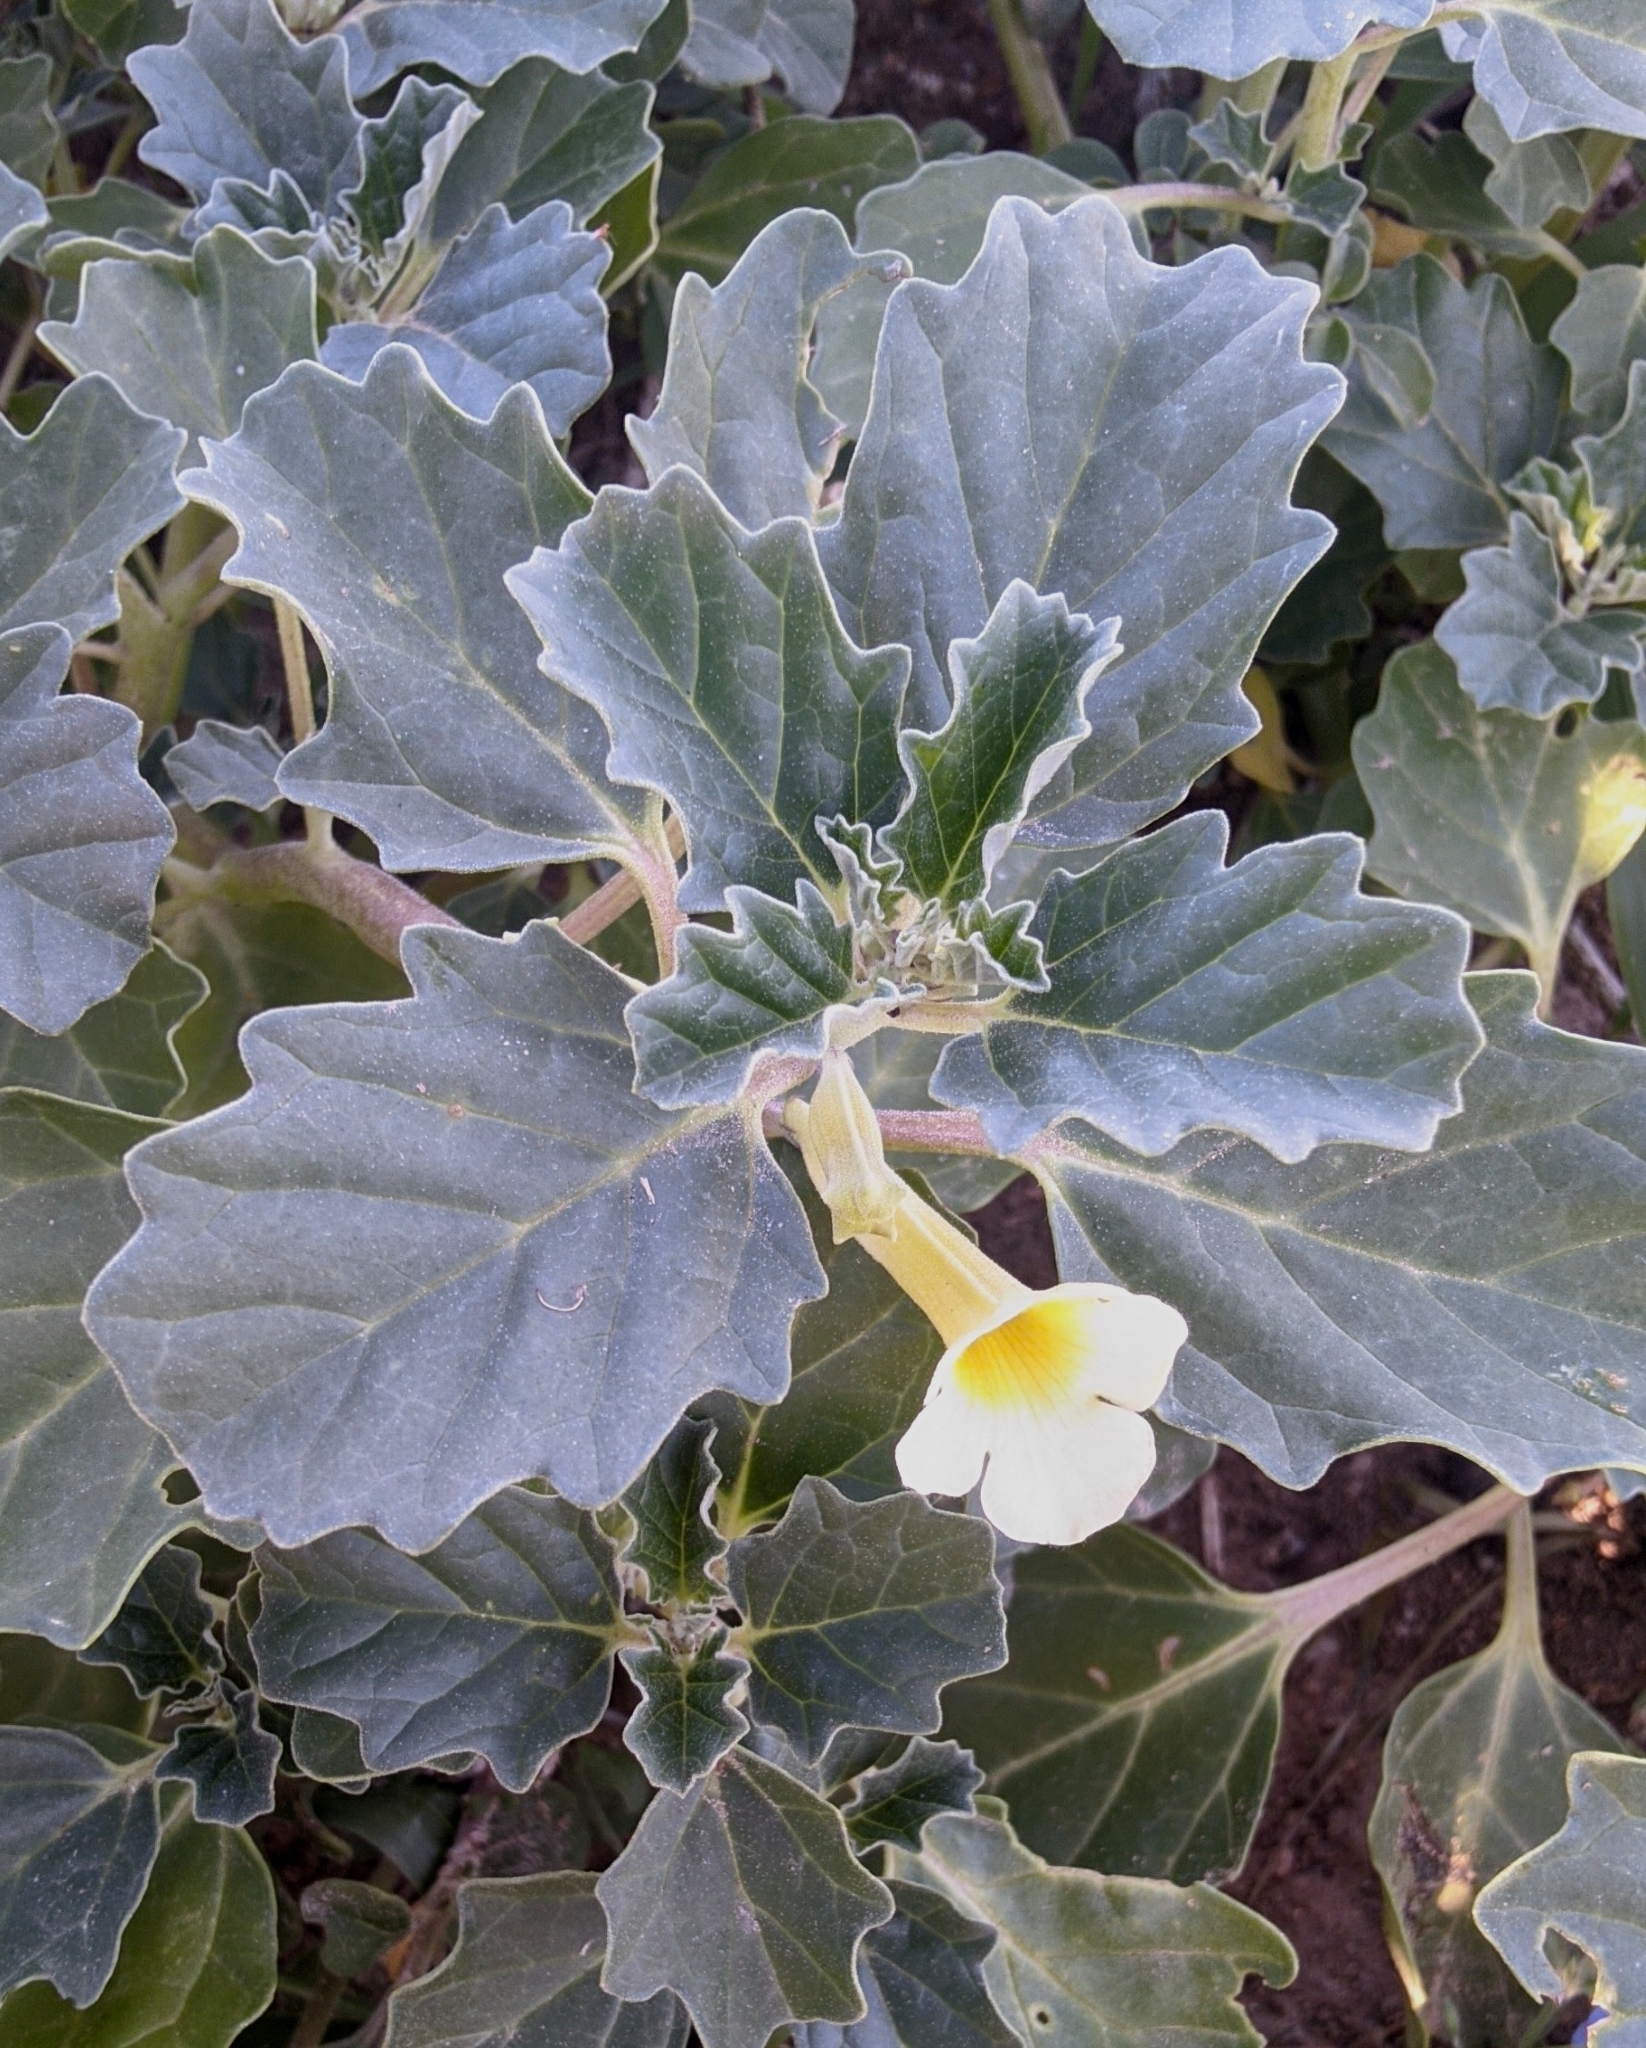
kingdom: Plantae
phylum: Tracheophyta
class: Magnoliopsida
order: Lamiales
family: Pedaliaceae
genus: Pedalium
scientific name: Pedalium murex
